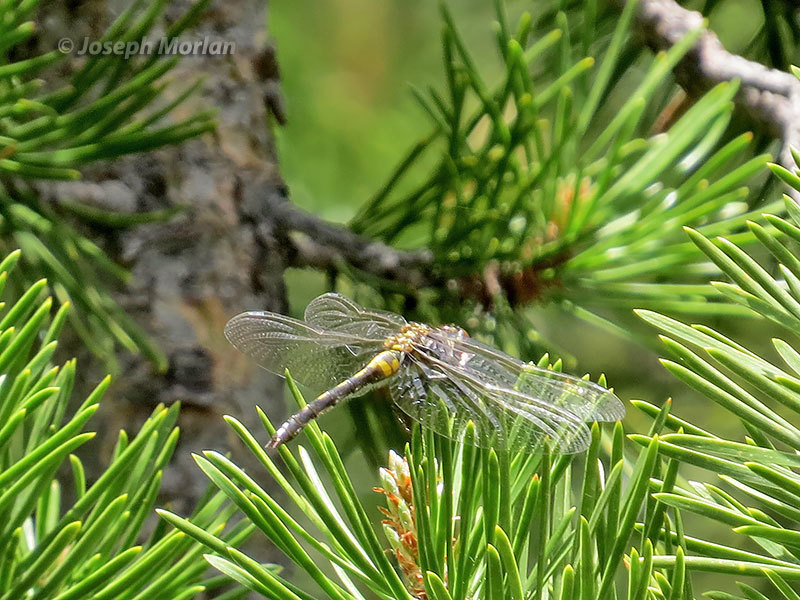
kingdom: Animalia
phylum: Arthropoda
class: Insecta
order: Odonata
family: Libellulidae
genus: Leucorrhinia
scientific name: Leucorrhinia glacialis
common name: Crimson-ringed whiteface
